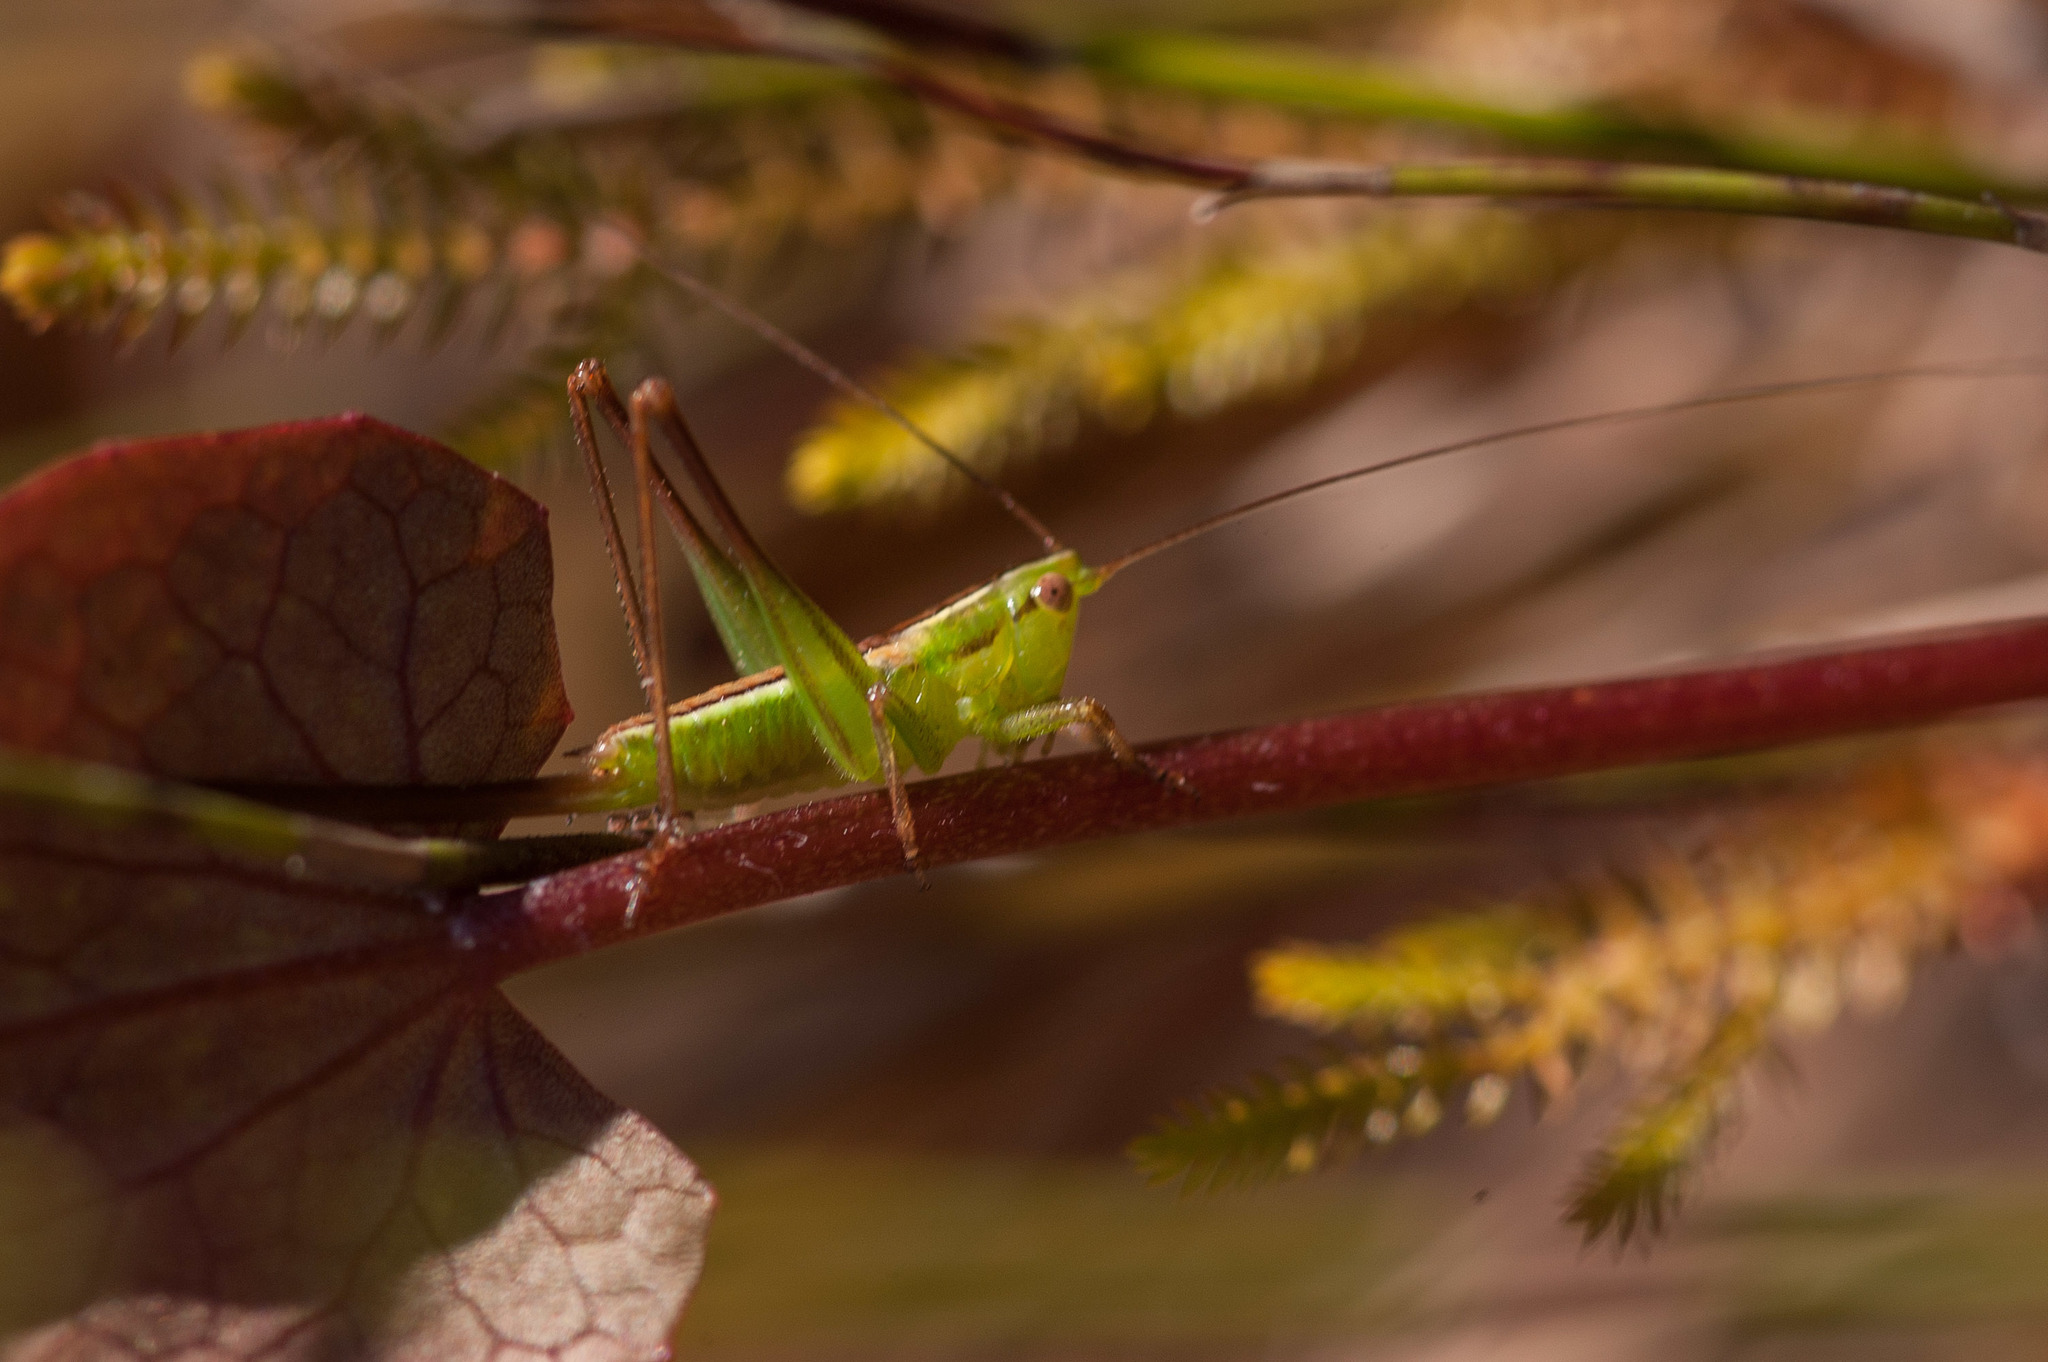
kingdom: Animalia
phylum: Arthropoda
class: Insecta
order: Orthoptera
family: Tettigoniidae
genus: Conocephalus
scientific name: Conocephalus bilineatus
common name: Small meadow katydid
